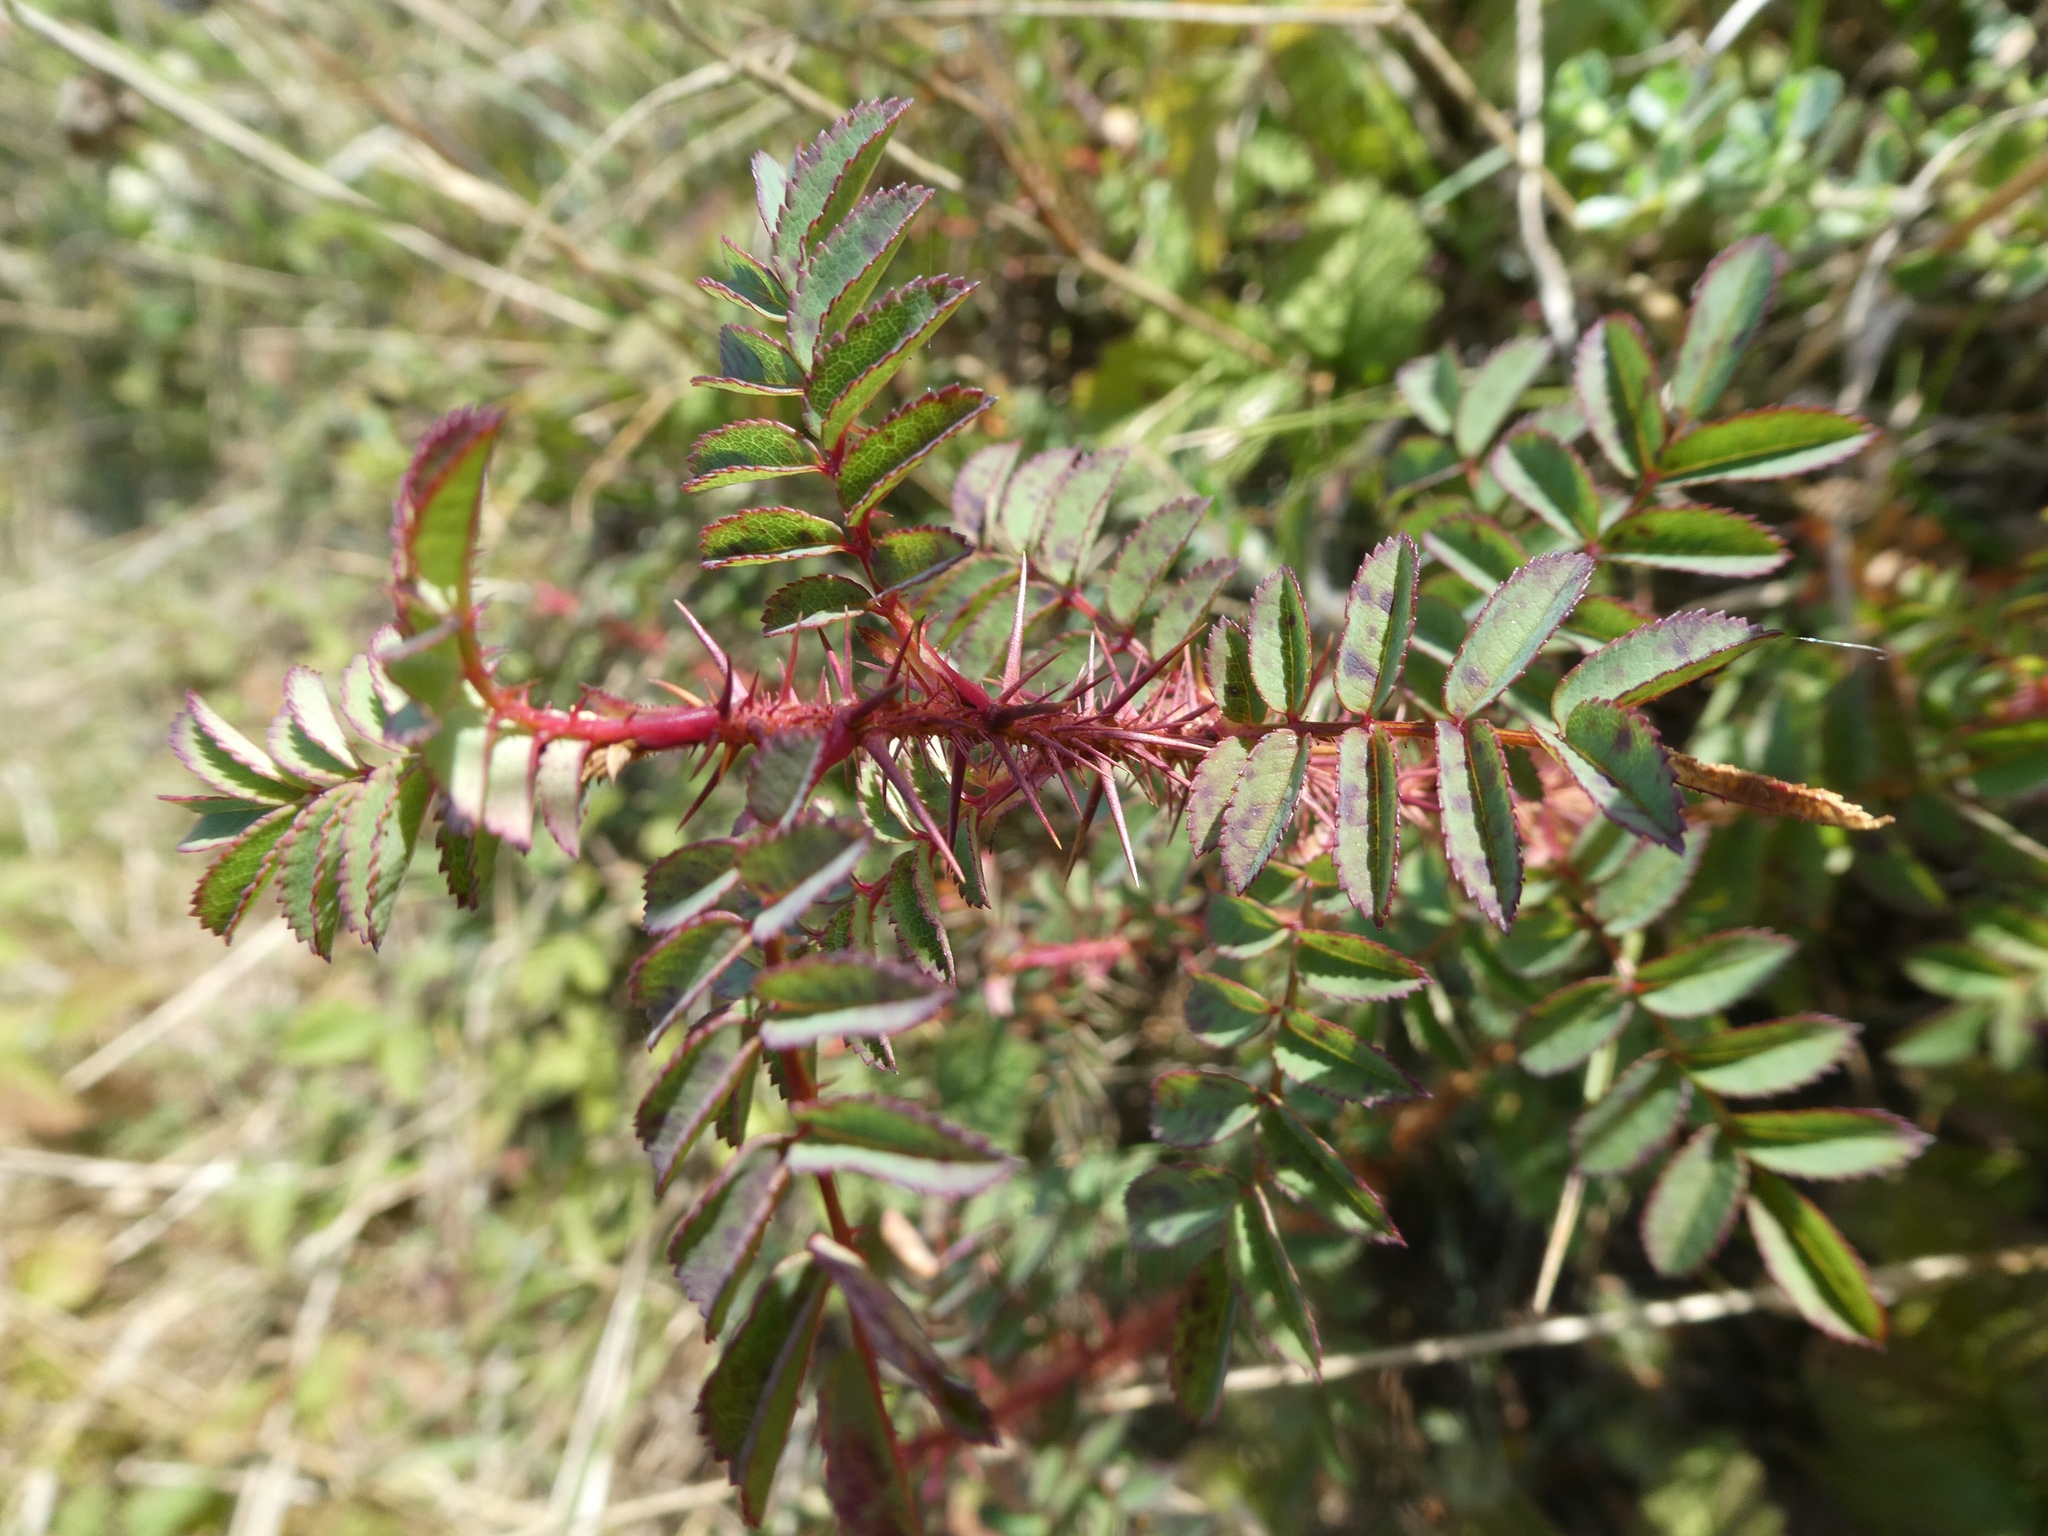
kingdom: Plantae
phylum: Tracheophyta
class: Magnoliopsida
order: Rosales
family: Rosaceae
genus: Rosa
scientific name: Rosa spinosissima
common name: Burnet rose
